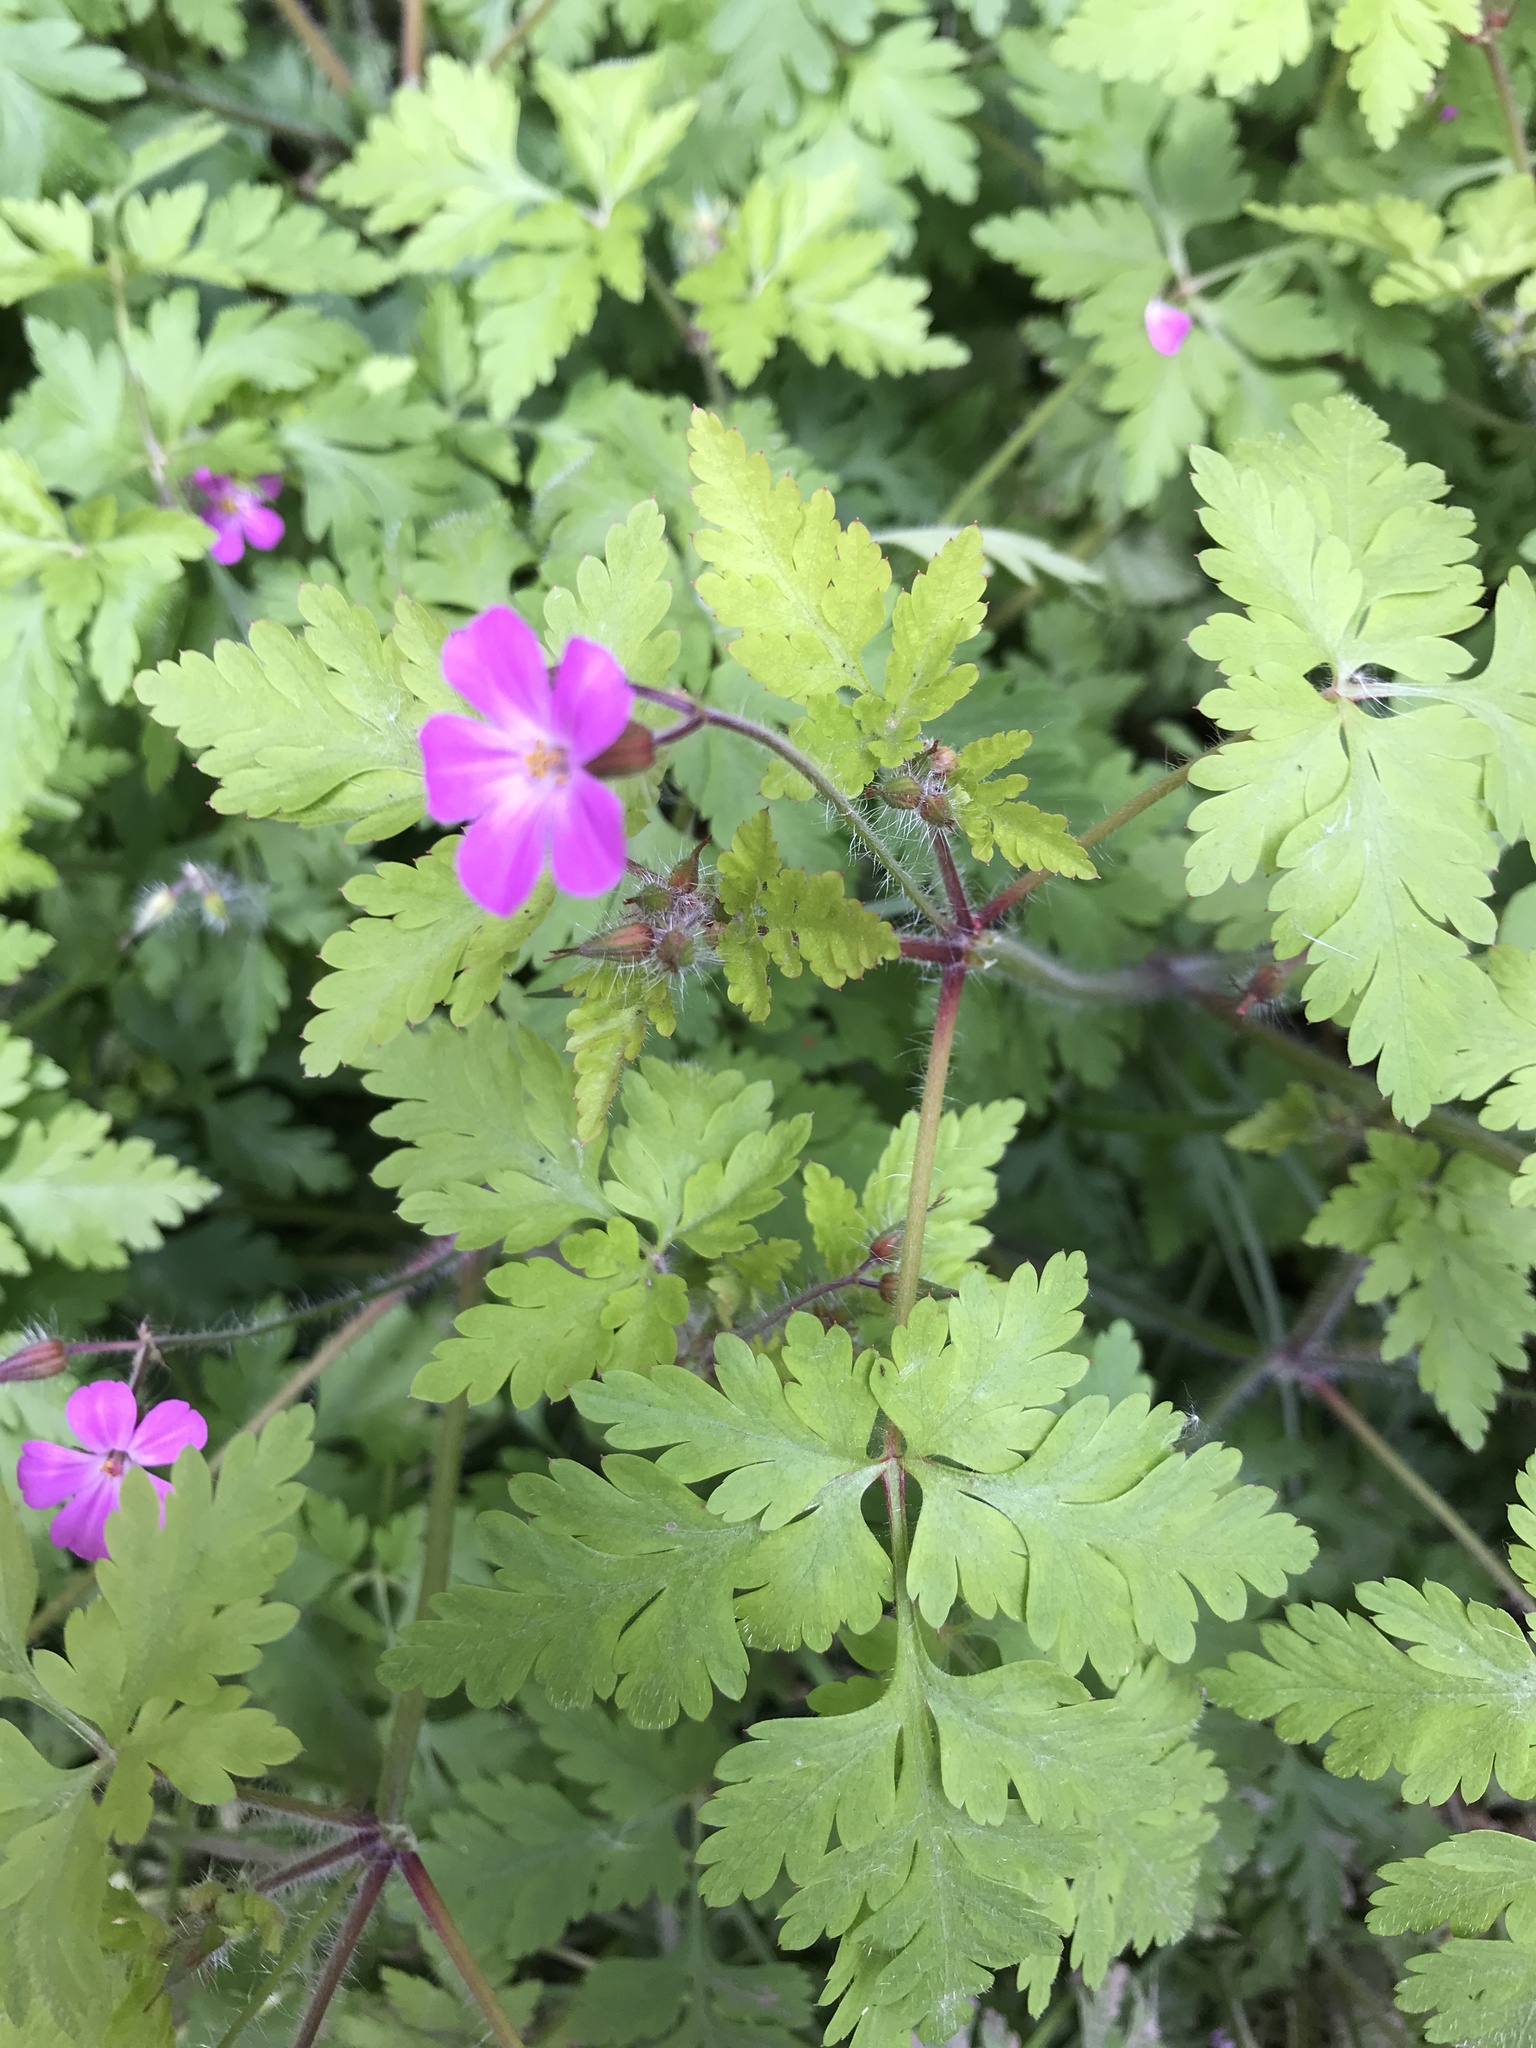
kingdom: Plantae
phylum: Tracheophyta
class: Magnoliopsida
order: Geraniales
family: Geraniaceae
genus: Geranium
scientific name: Geranium robertianum
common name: Herb-robert
